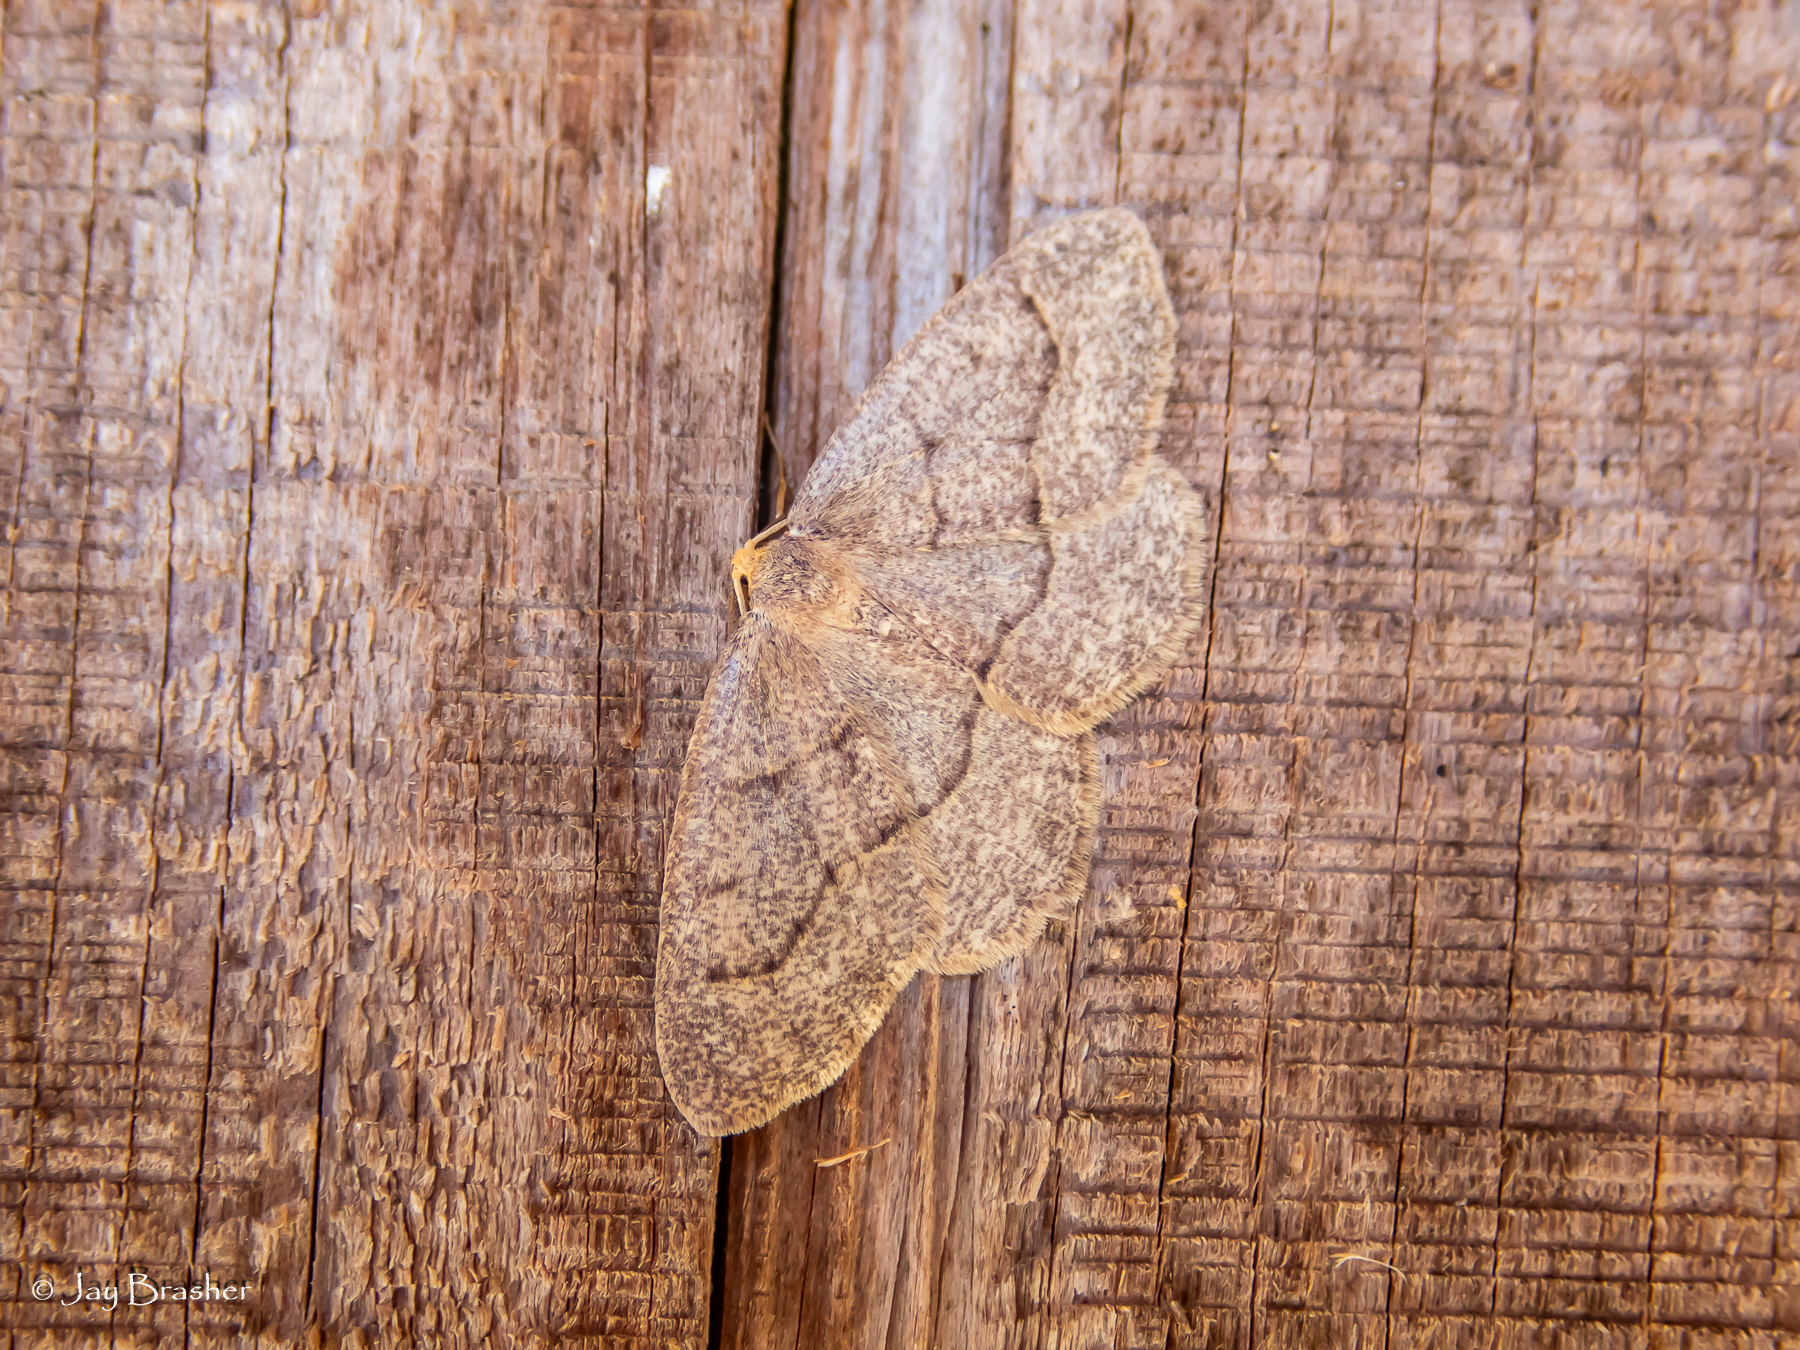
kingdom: Animalia
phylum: Arthropoda
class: Insecta
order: Lepidoptera
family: Geometridae
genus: Lambdina
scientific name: Lambdina fervidaria
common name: Curve-lined looper moth
